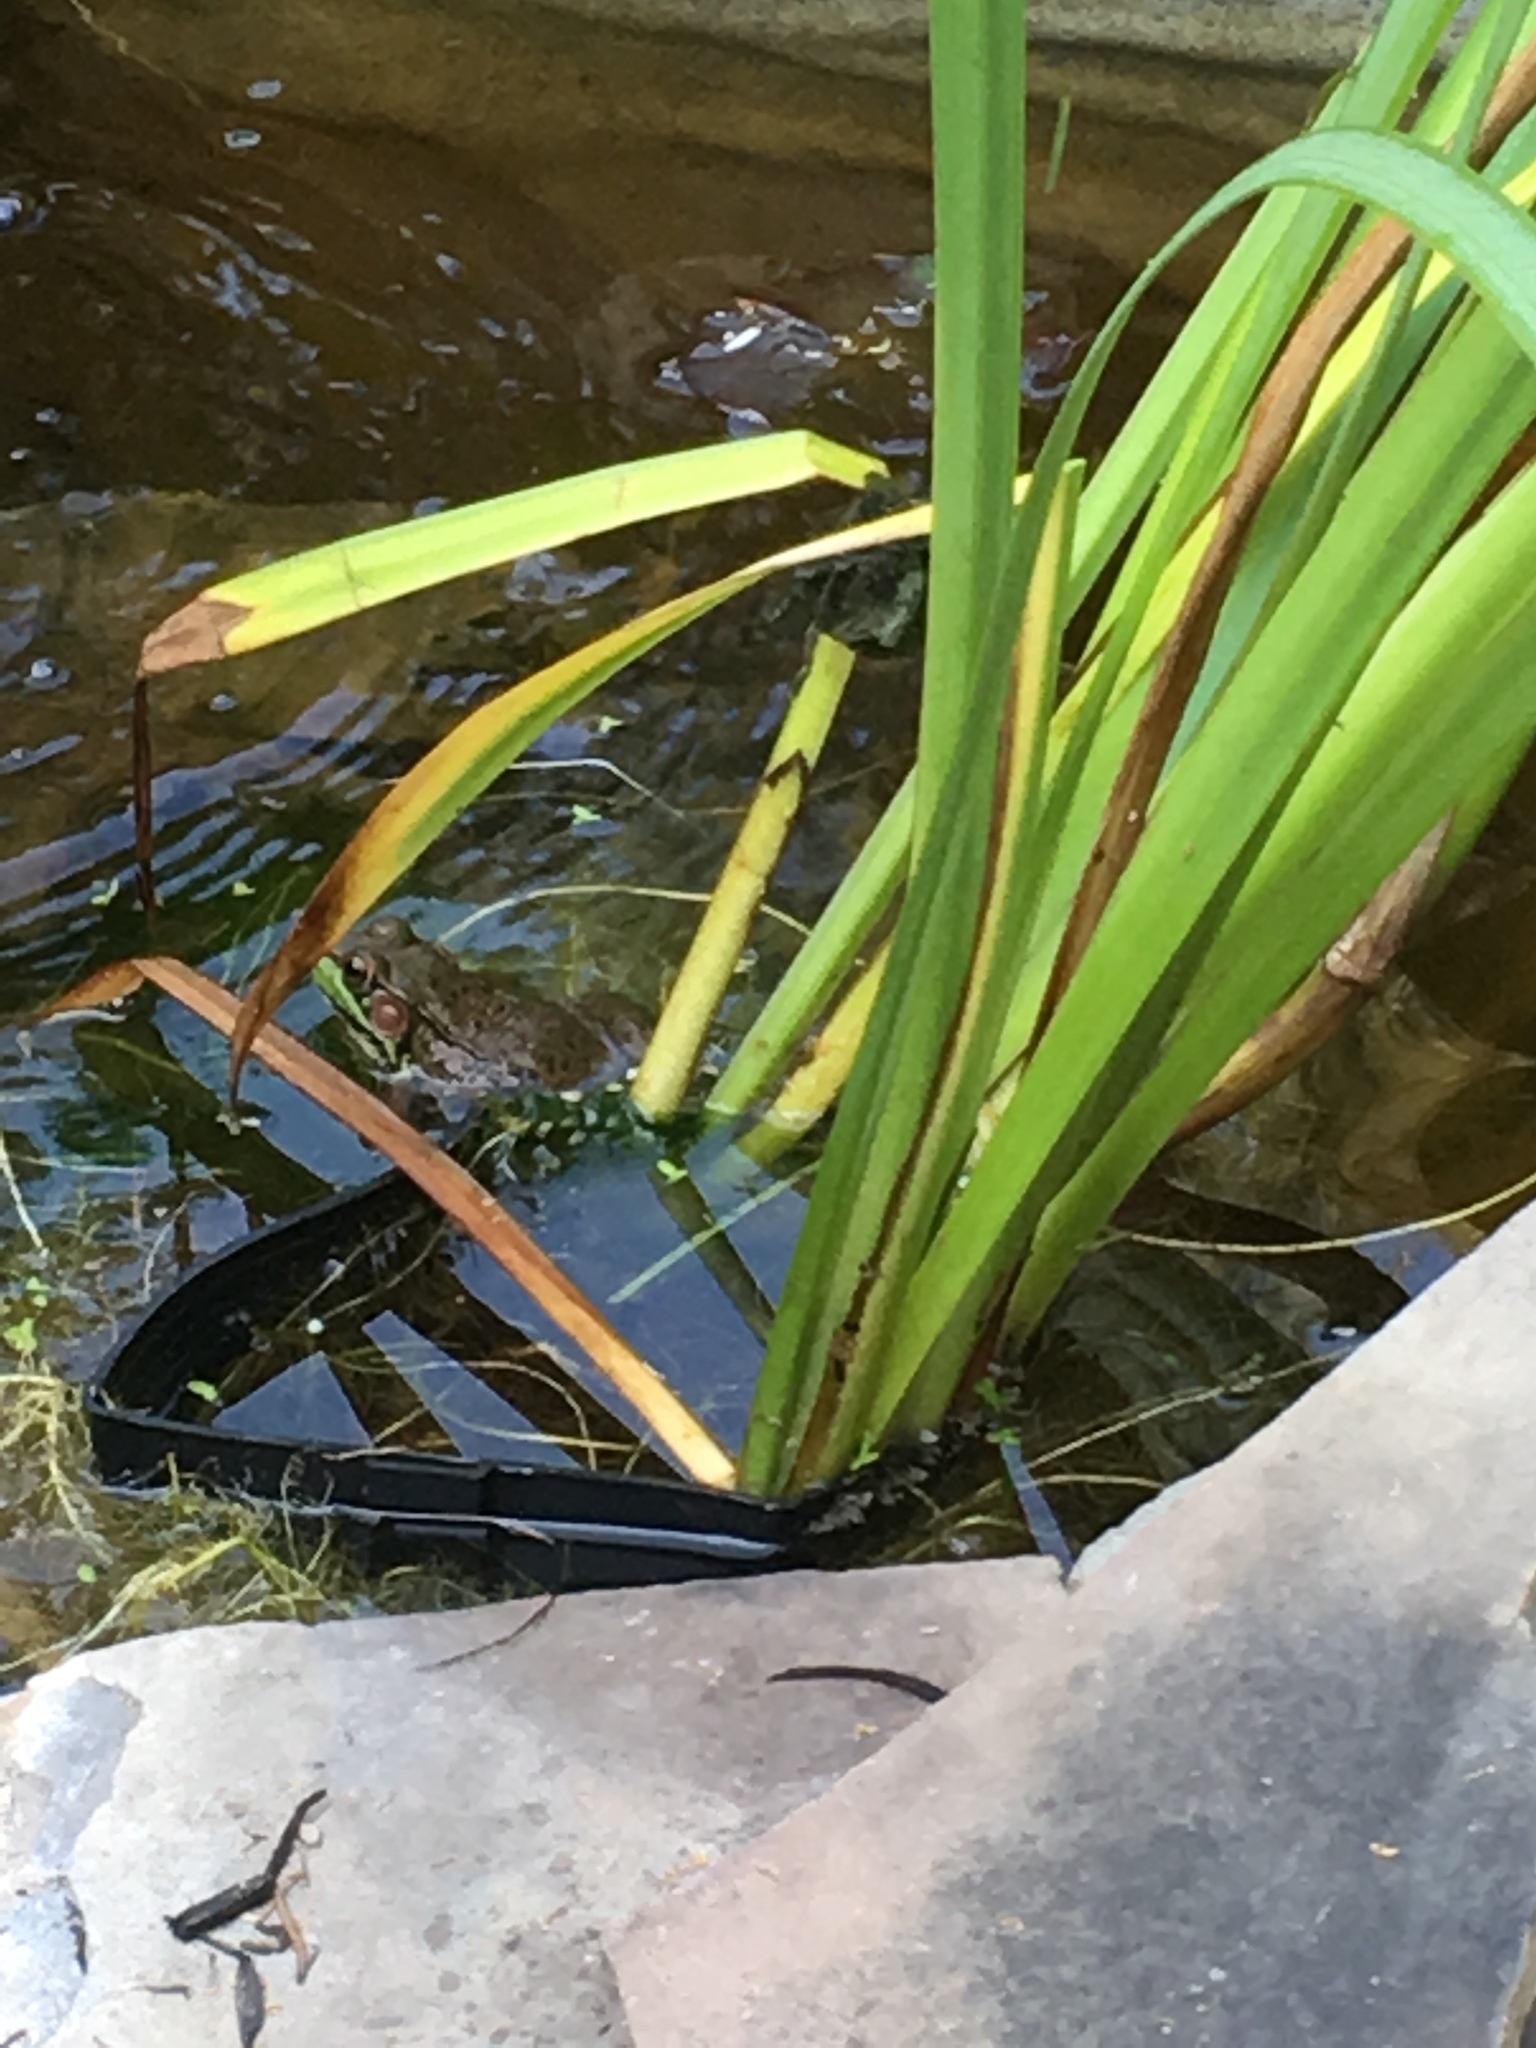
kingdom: Animalia
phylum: Chordata
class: Amphibia
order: Anura
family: Ranidae
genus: Lithobates
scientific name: Lithobates clamitans
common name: Green frog
